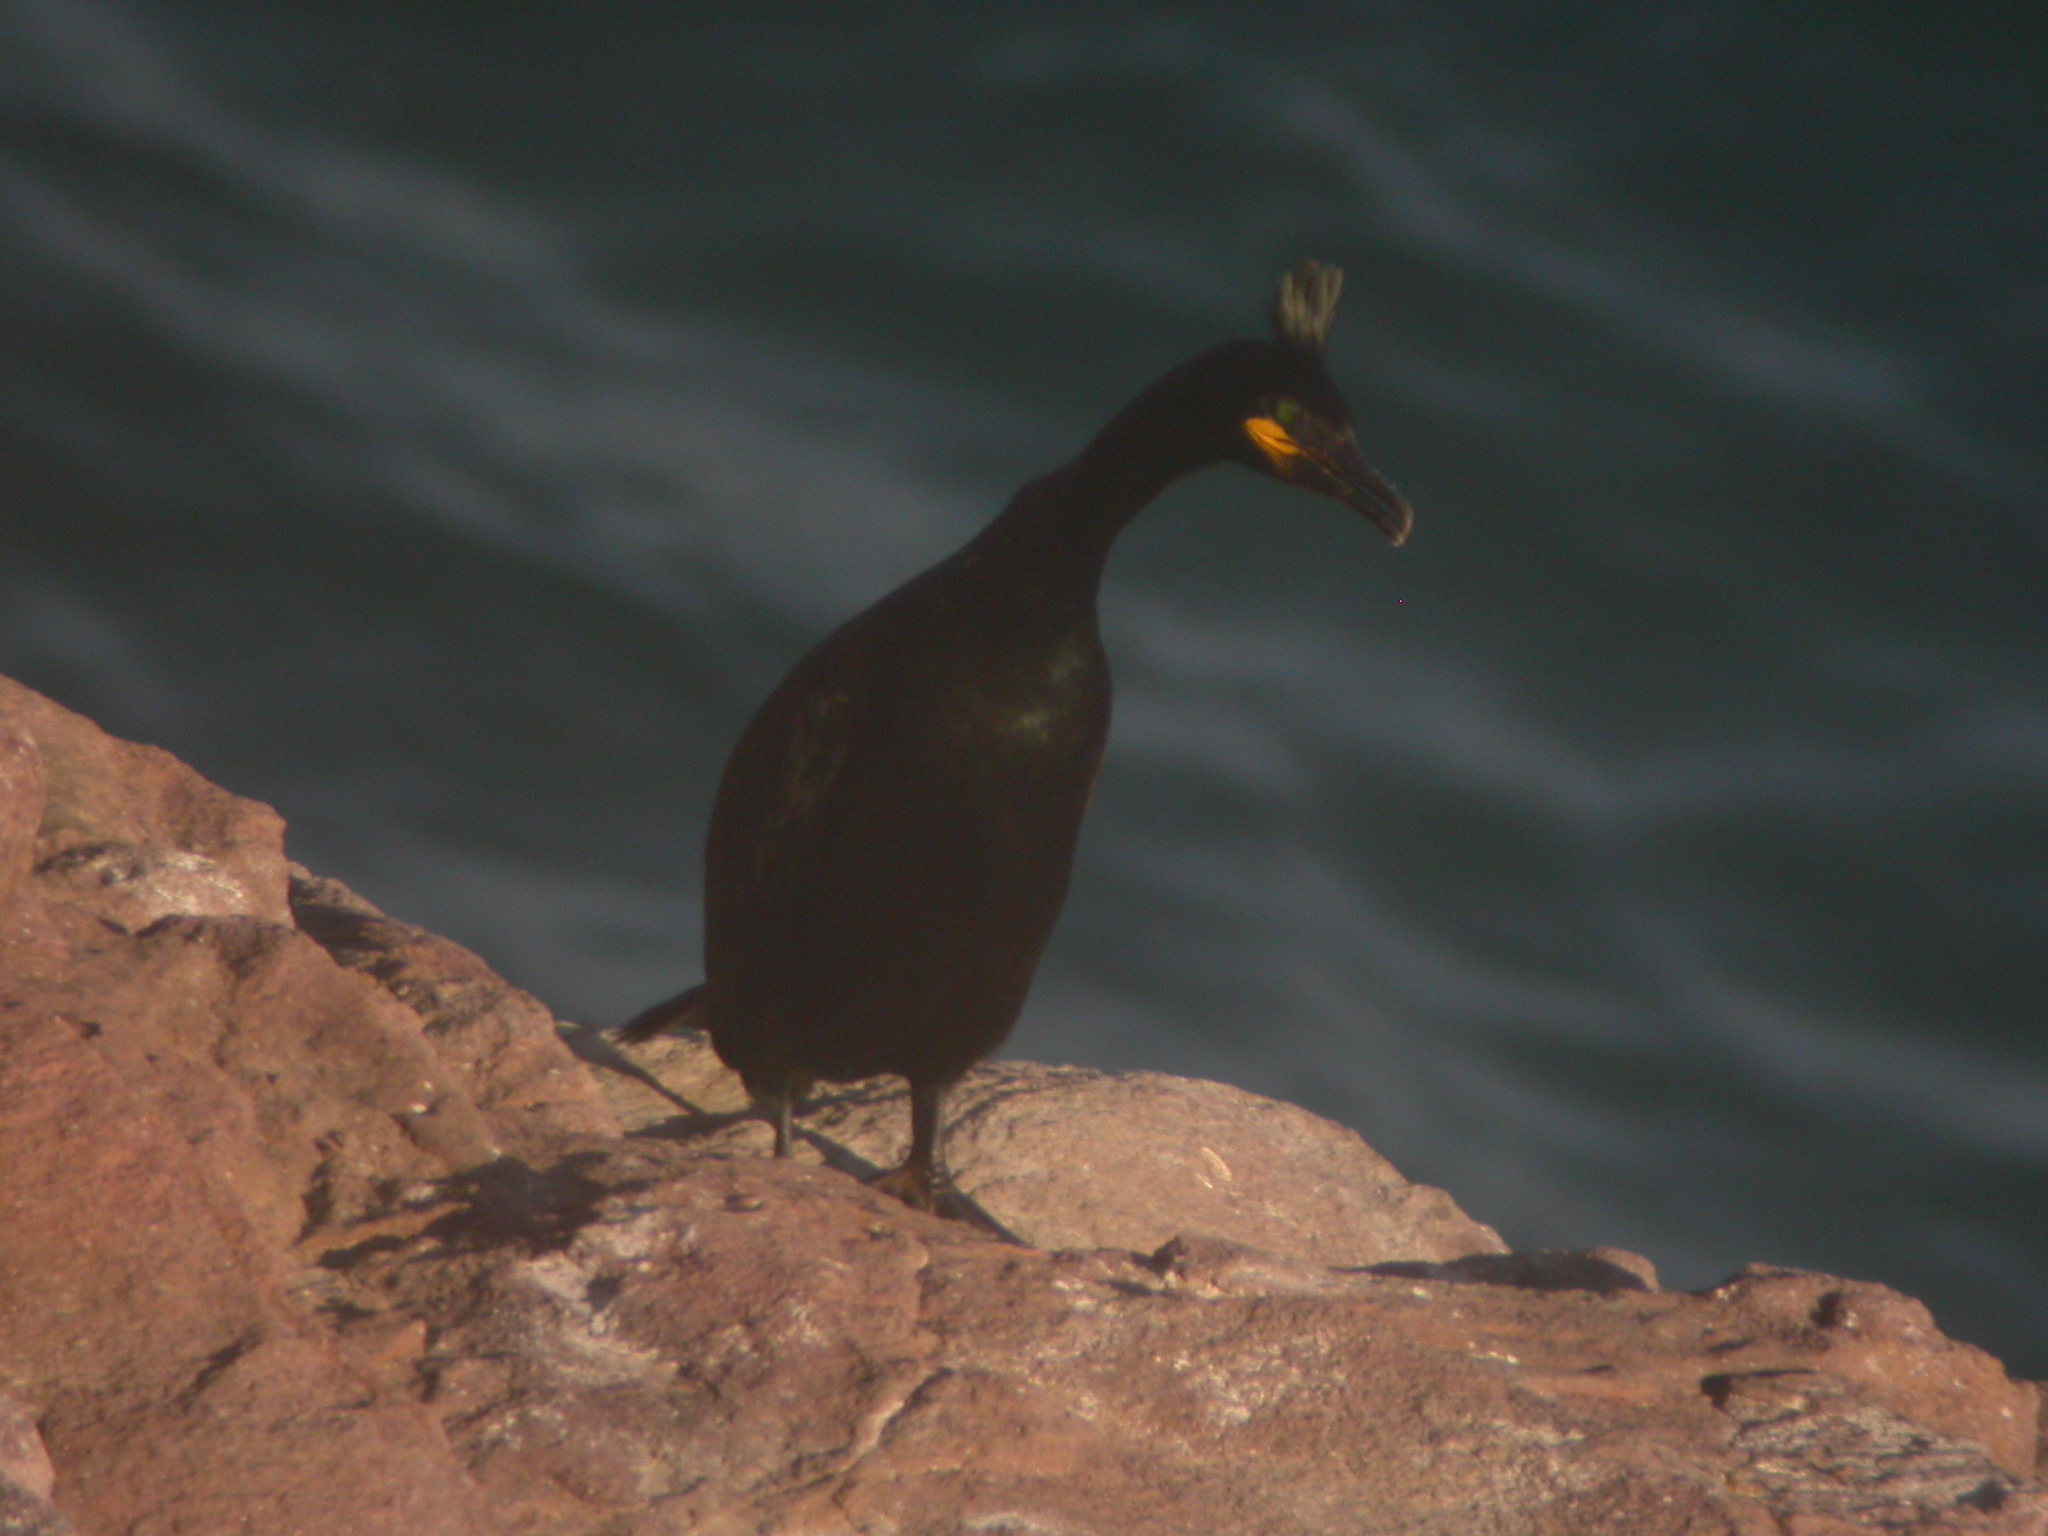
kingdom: Animalia
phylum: Chordata
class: Aves
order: Suliformes
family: Phalacrocoracidae
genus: Phalacrocorax
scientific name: Phalacrocorax aristotelis
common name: European shag
